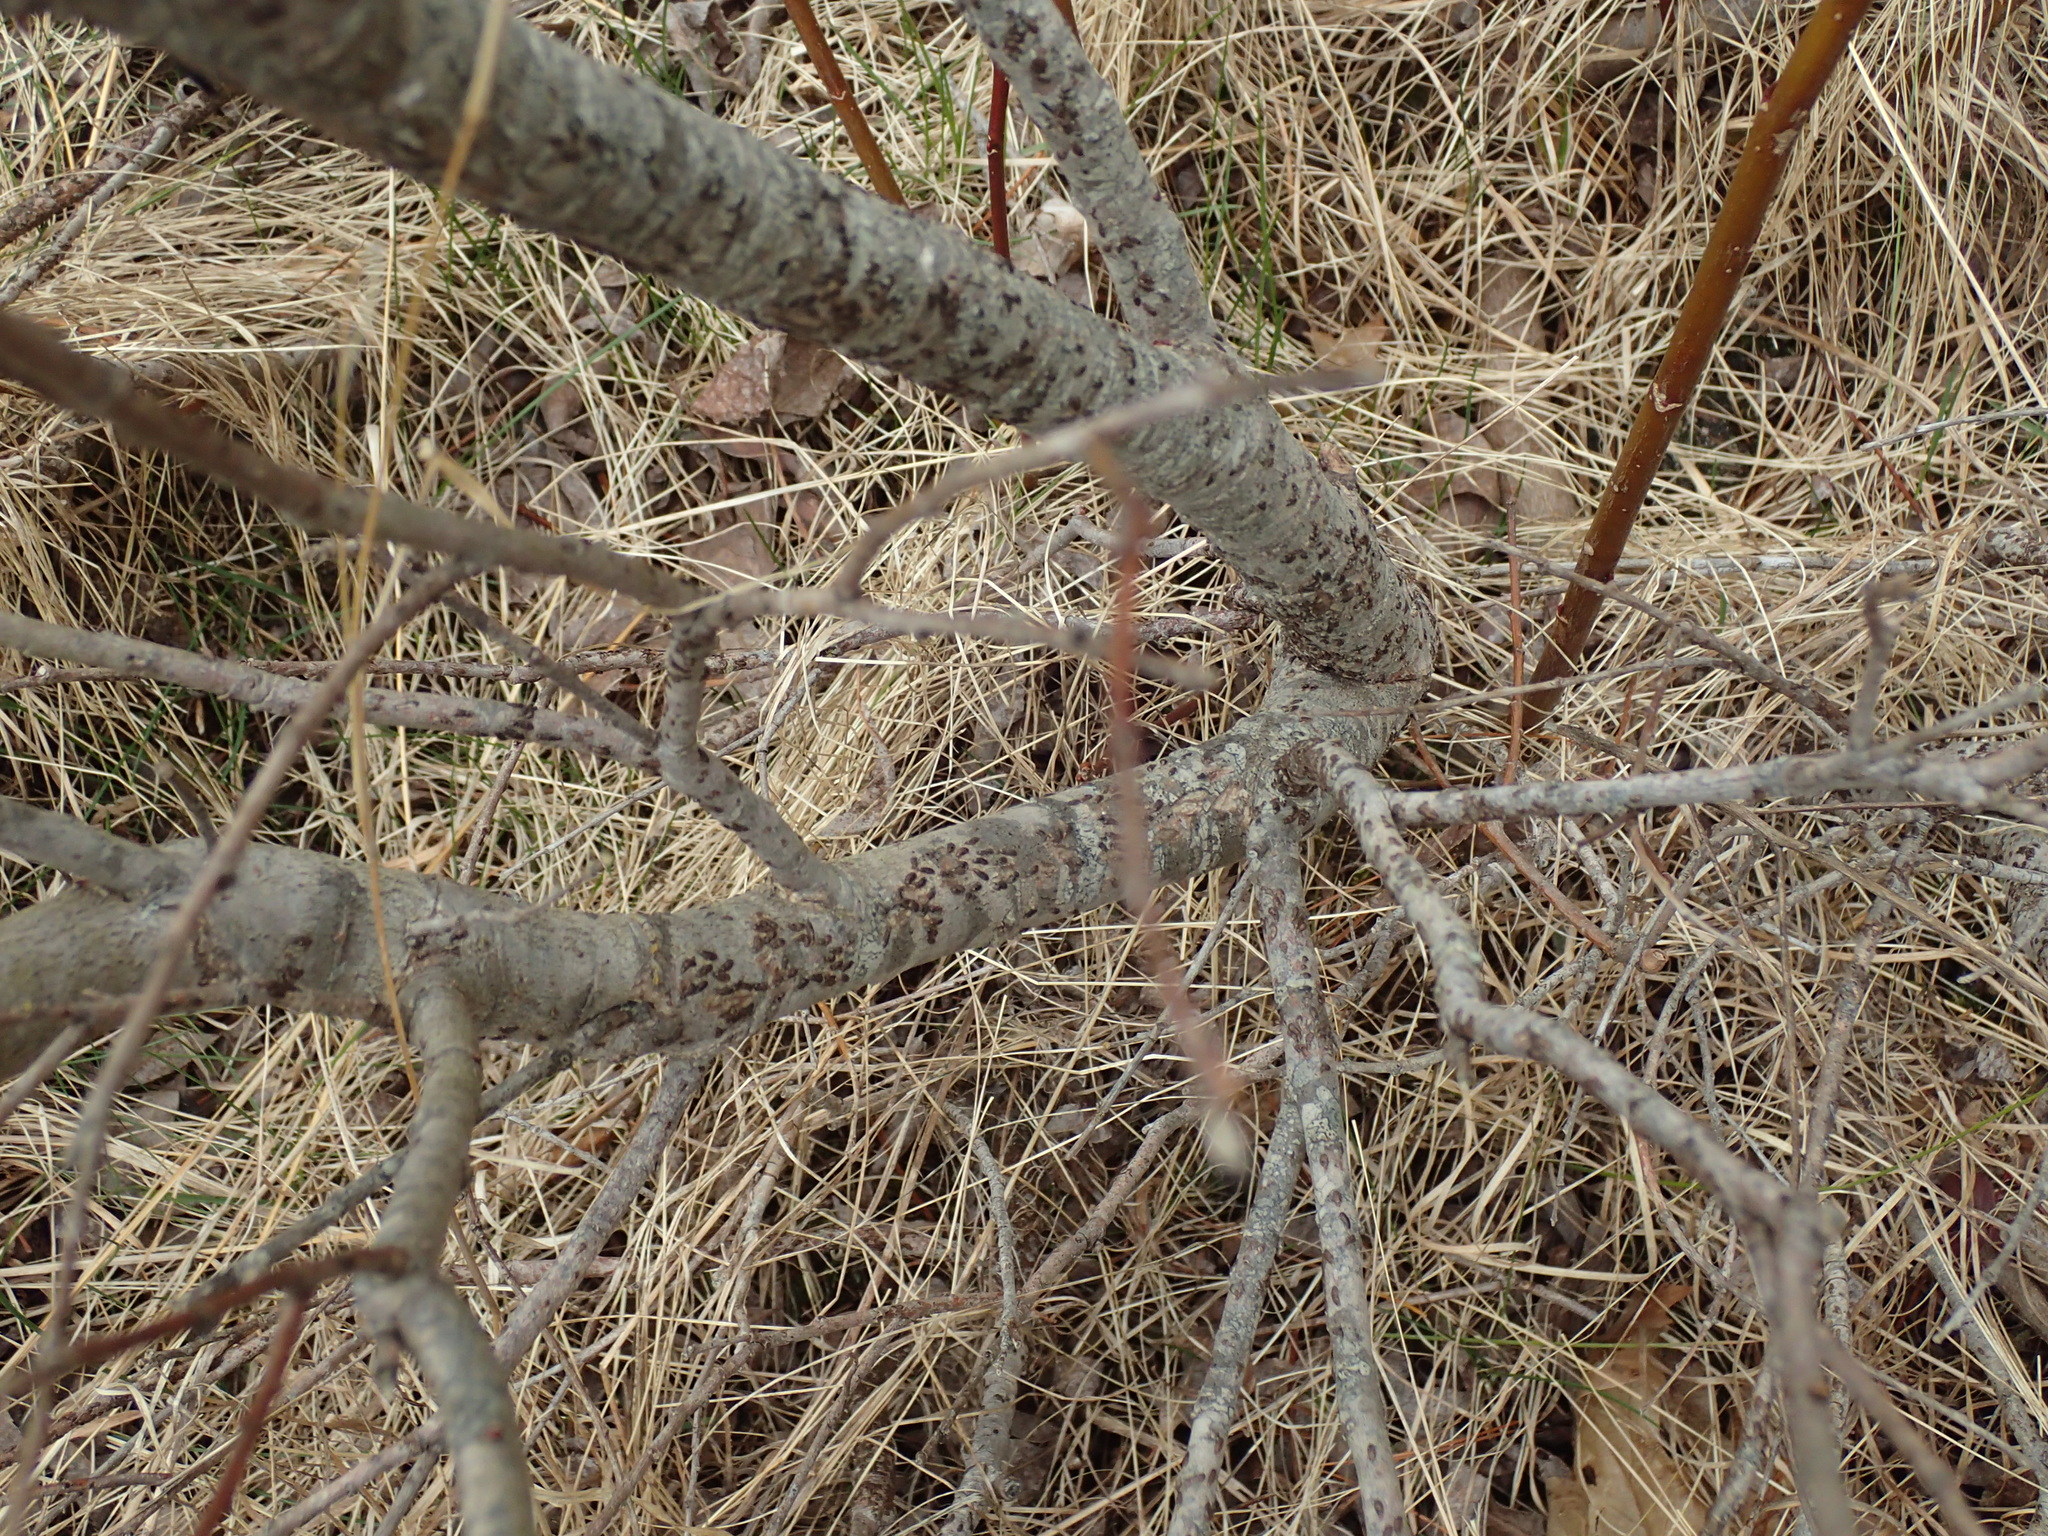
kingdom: Plantae
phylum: Tracheophyta
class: Magnoliopsida
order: Malpighiales
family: Salicaceae
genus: Salix
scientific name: Salix eriocephala
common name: Heart-leaved willow
